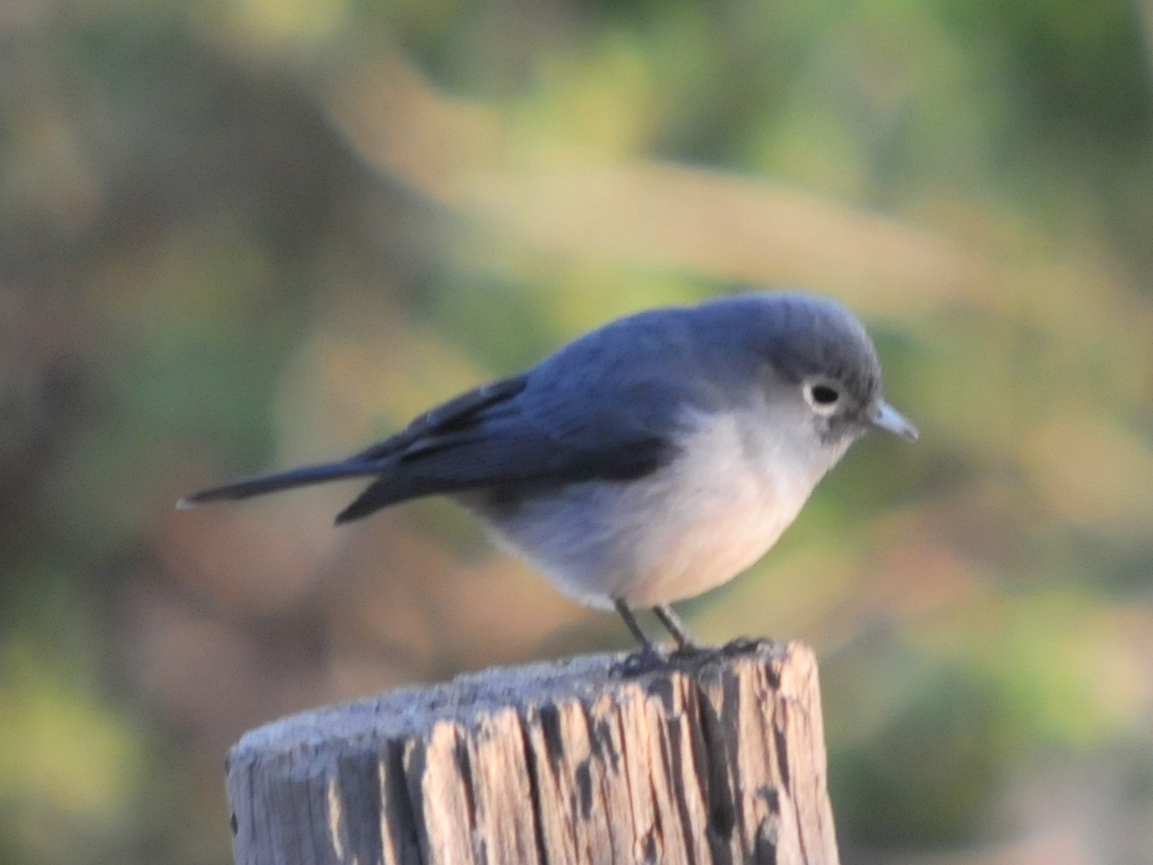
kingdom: Animalia
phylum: Chordata
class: Aves
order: Passeriformes
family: Muscicapidae
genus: Dioptrornis
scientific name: Dioptrornis fischeri
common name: White-eyed slaty flycatcher
